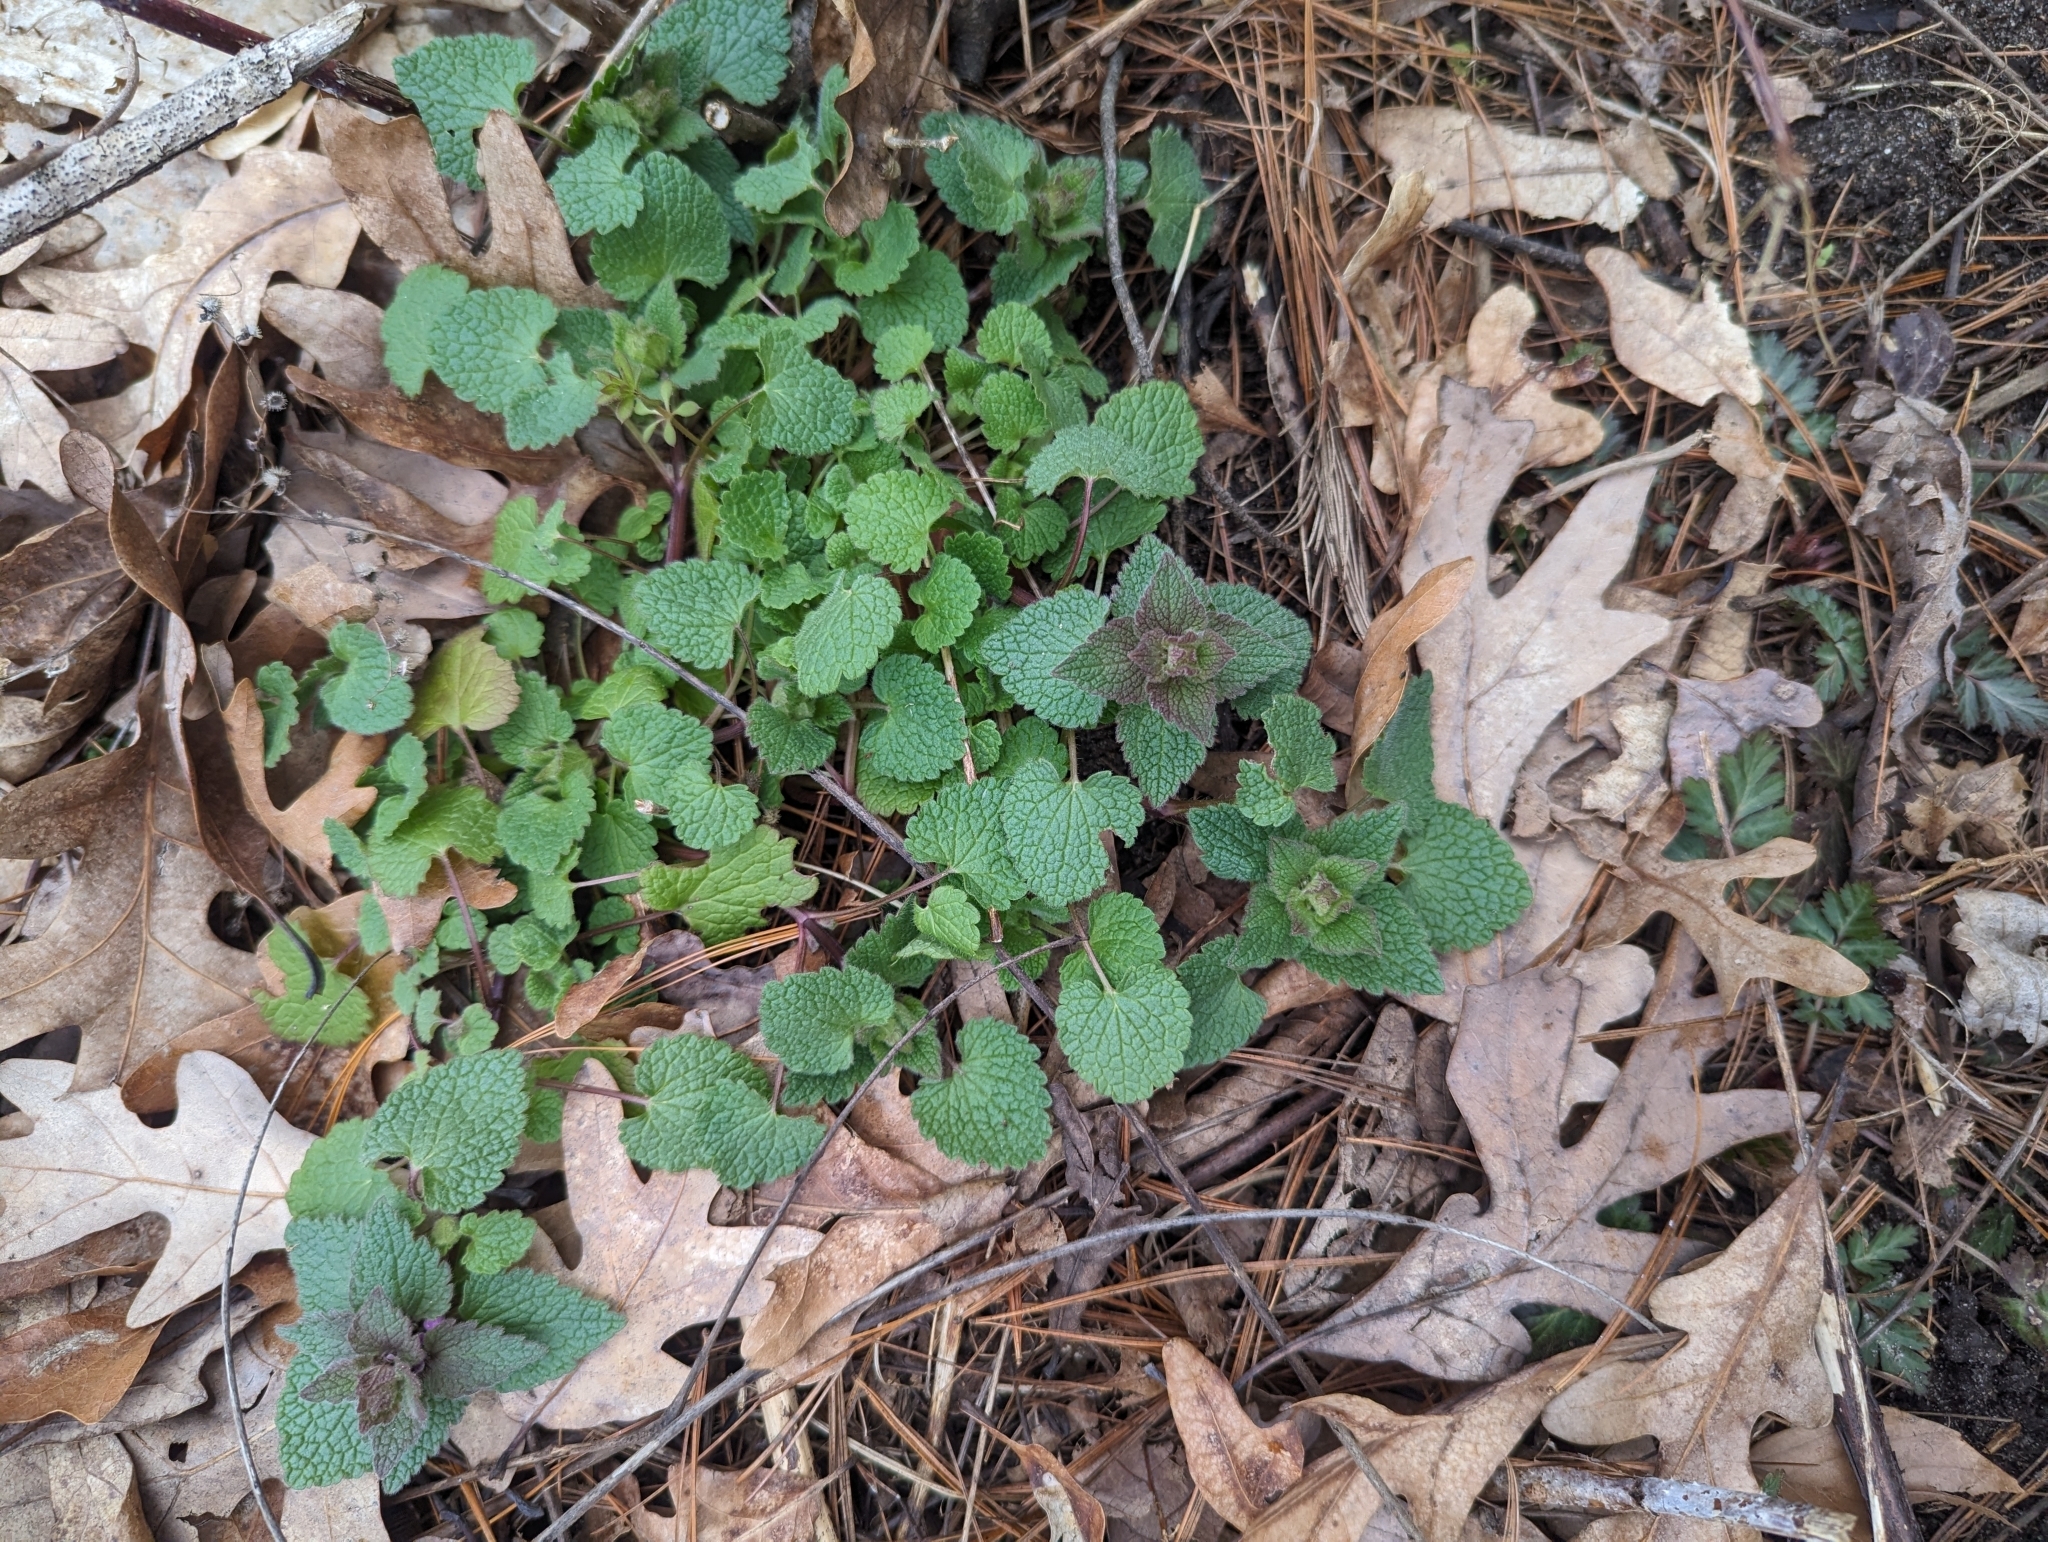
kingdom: Plantae
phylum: Tracheophyta
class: Magnoliopsida
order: Lamiales
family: Lamiaceae
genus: Lamium
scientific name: Lamium purpureum
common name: Red dead-nettle
